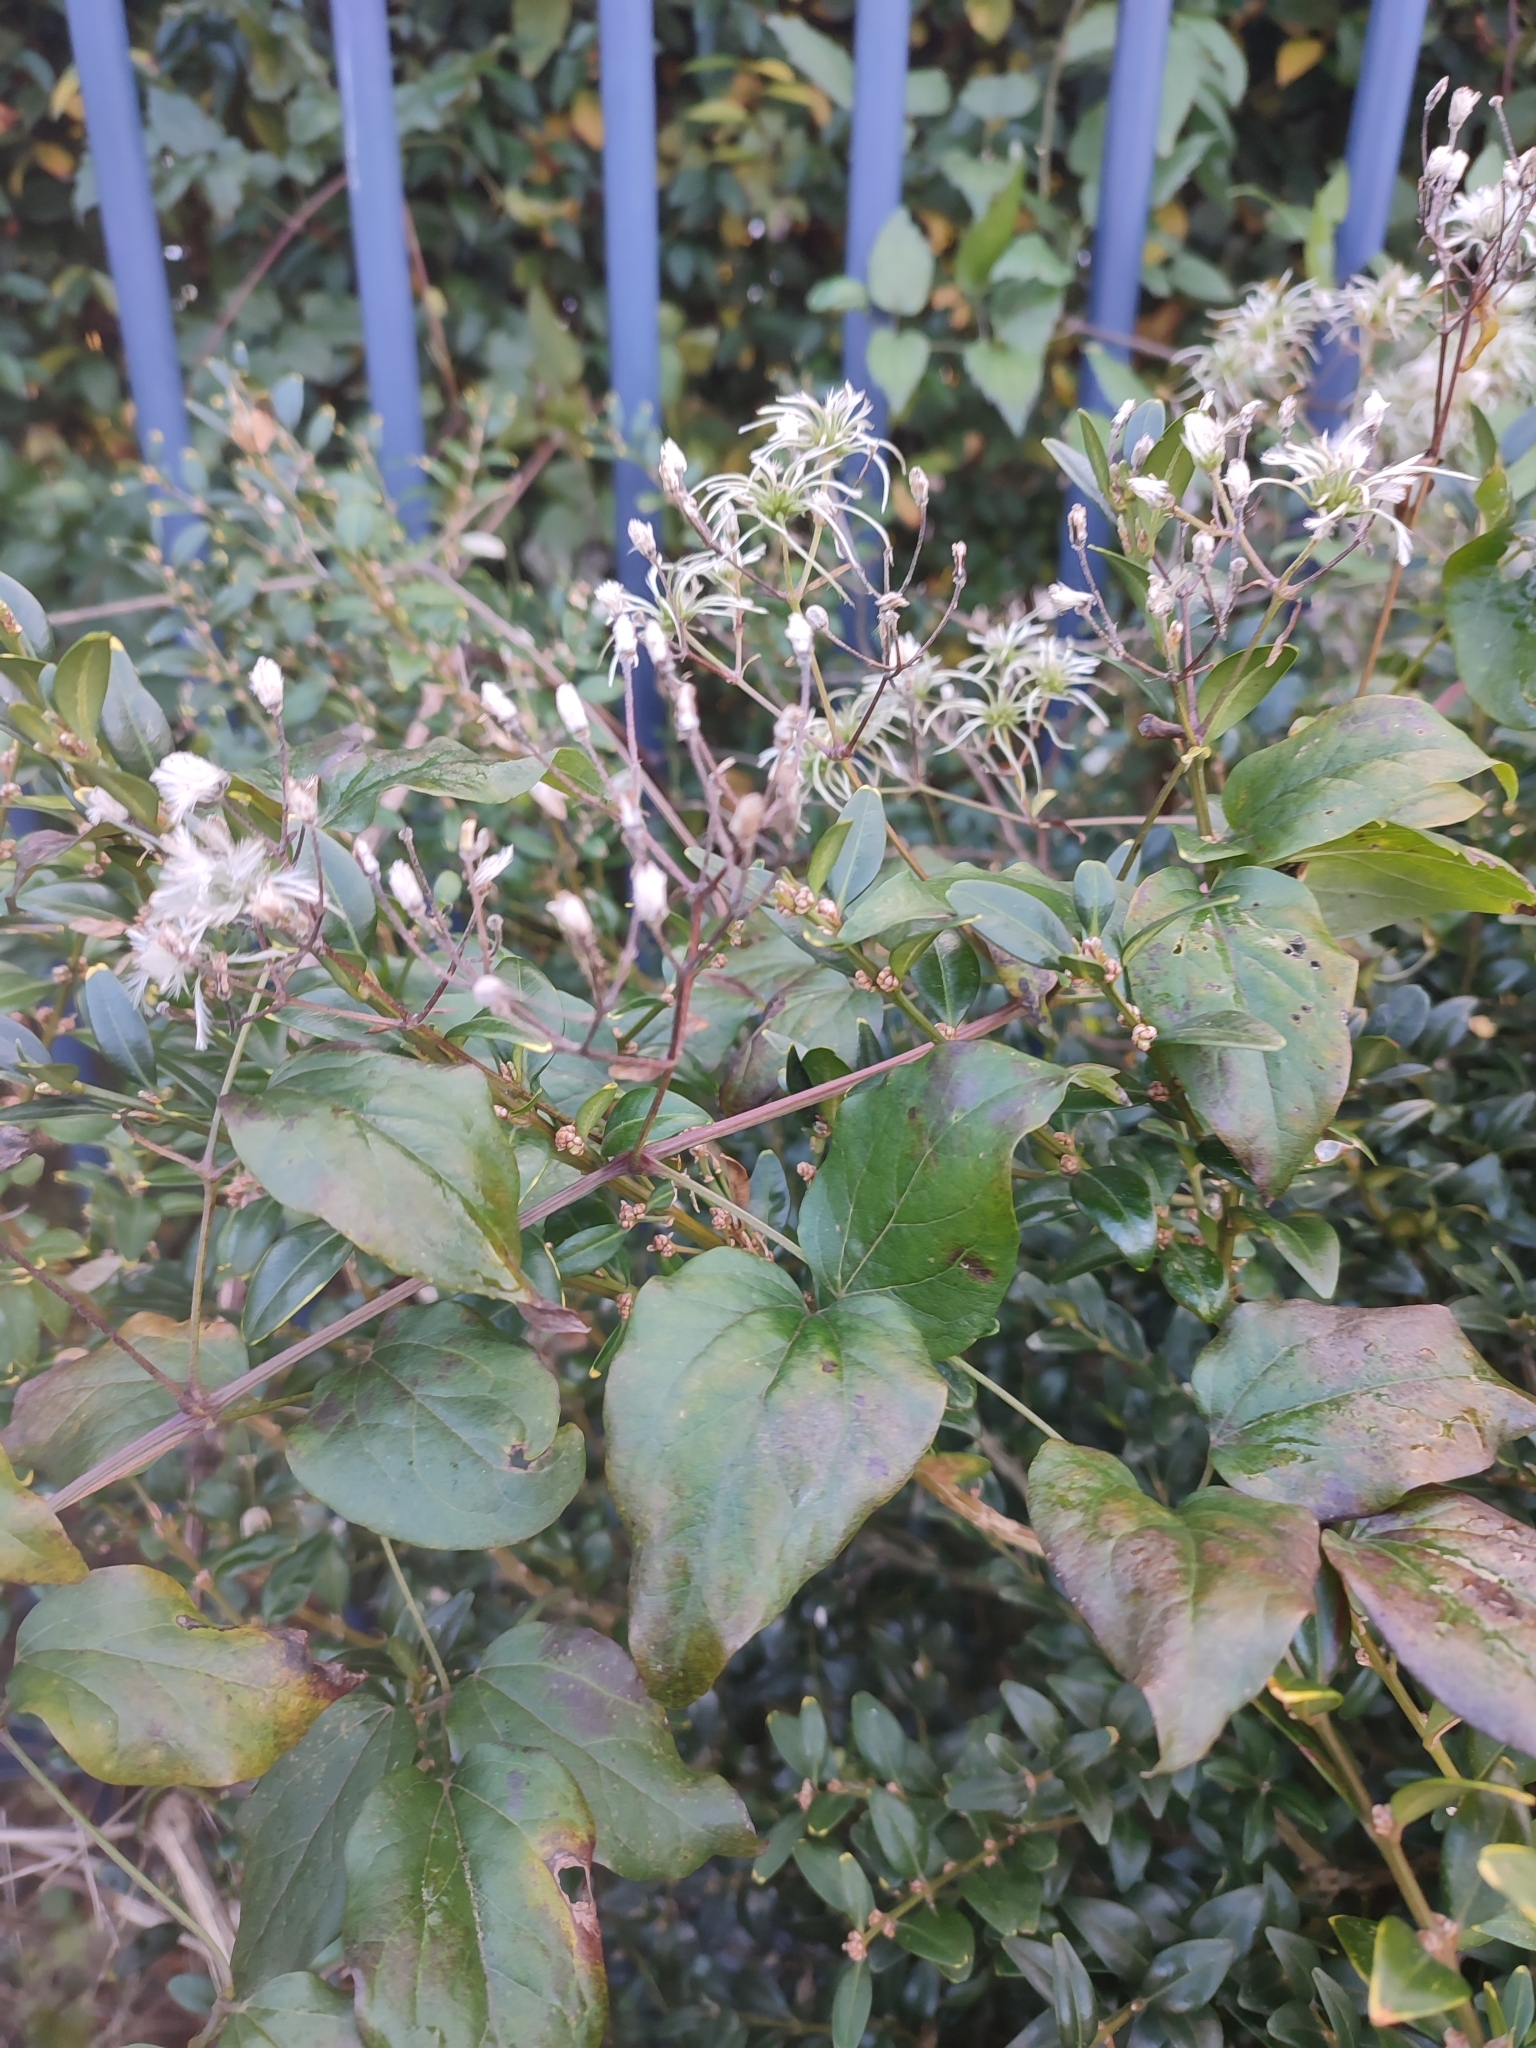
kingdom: Plantae
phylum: Tracheophyta
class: Magnoliopsida
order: Ranunculales
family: Ranunculaceae
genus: Clematis
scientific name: Clematis vitalba
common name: Evergreen clematis
